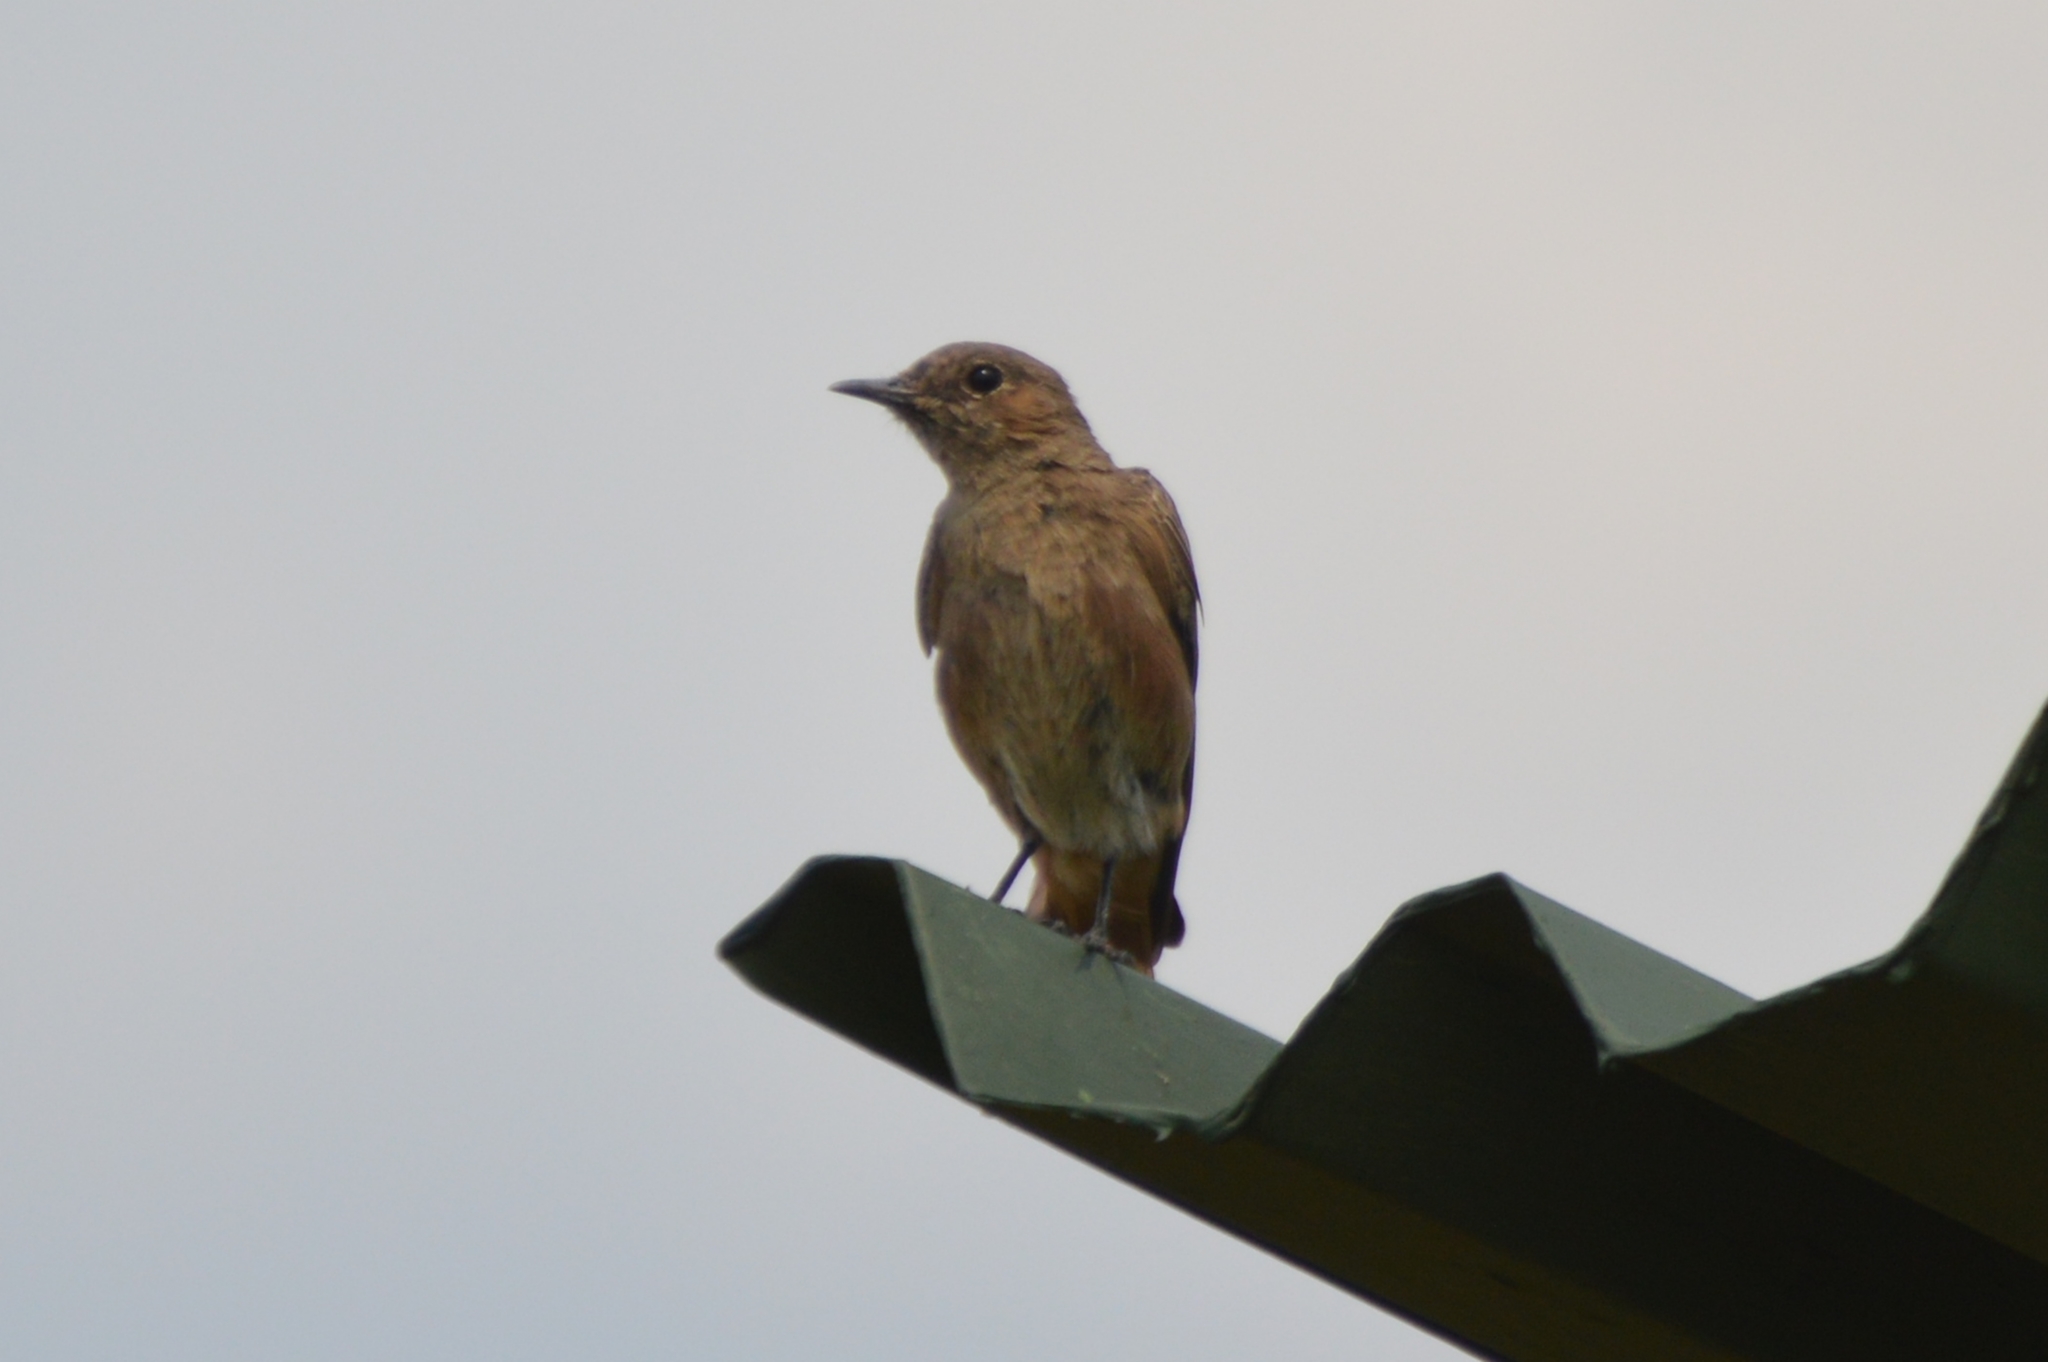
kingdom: Animalia
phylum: Chordata
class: Aves
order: Passeriformes
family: Muscicapidae
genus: Oenanthe
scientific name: Oenanthe familiaris
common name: Familiar chat
